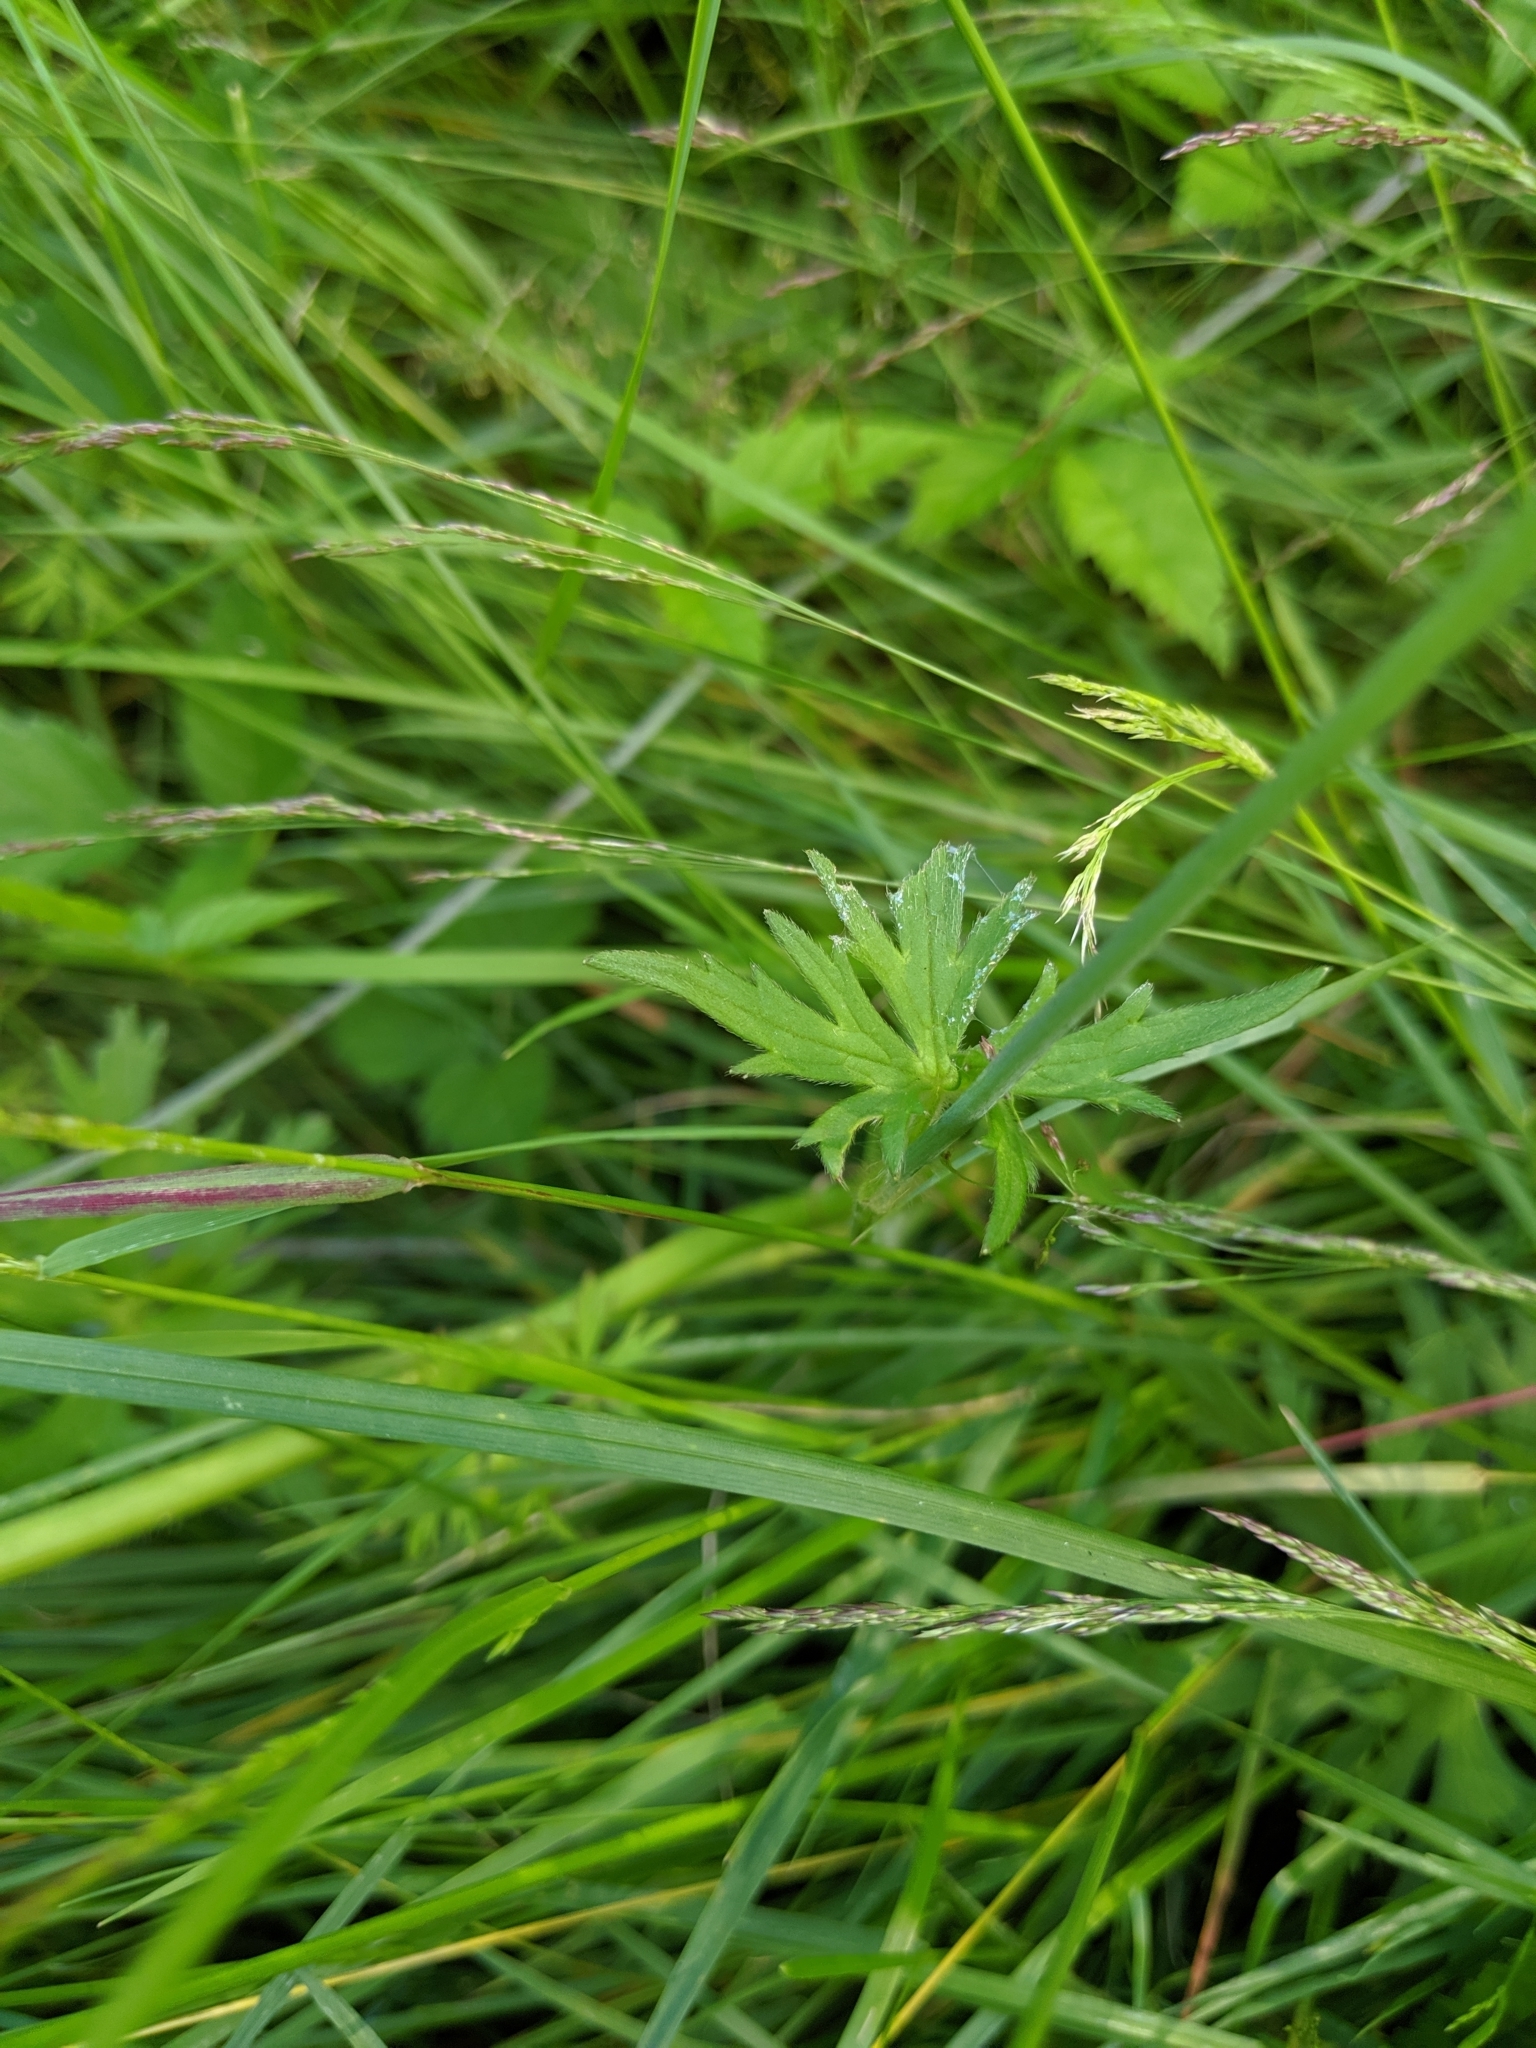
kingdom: Plantae
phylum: Tracheophyta
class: Magnoliopsida
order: Ranunculales
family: Ranunculaceae
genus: Ranunculus
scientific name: Ranunculus acris
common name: Meadow buttercup
